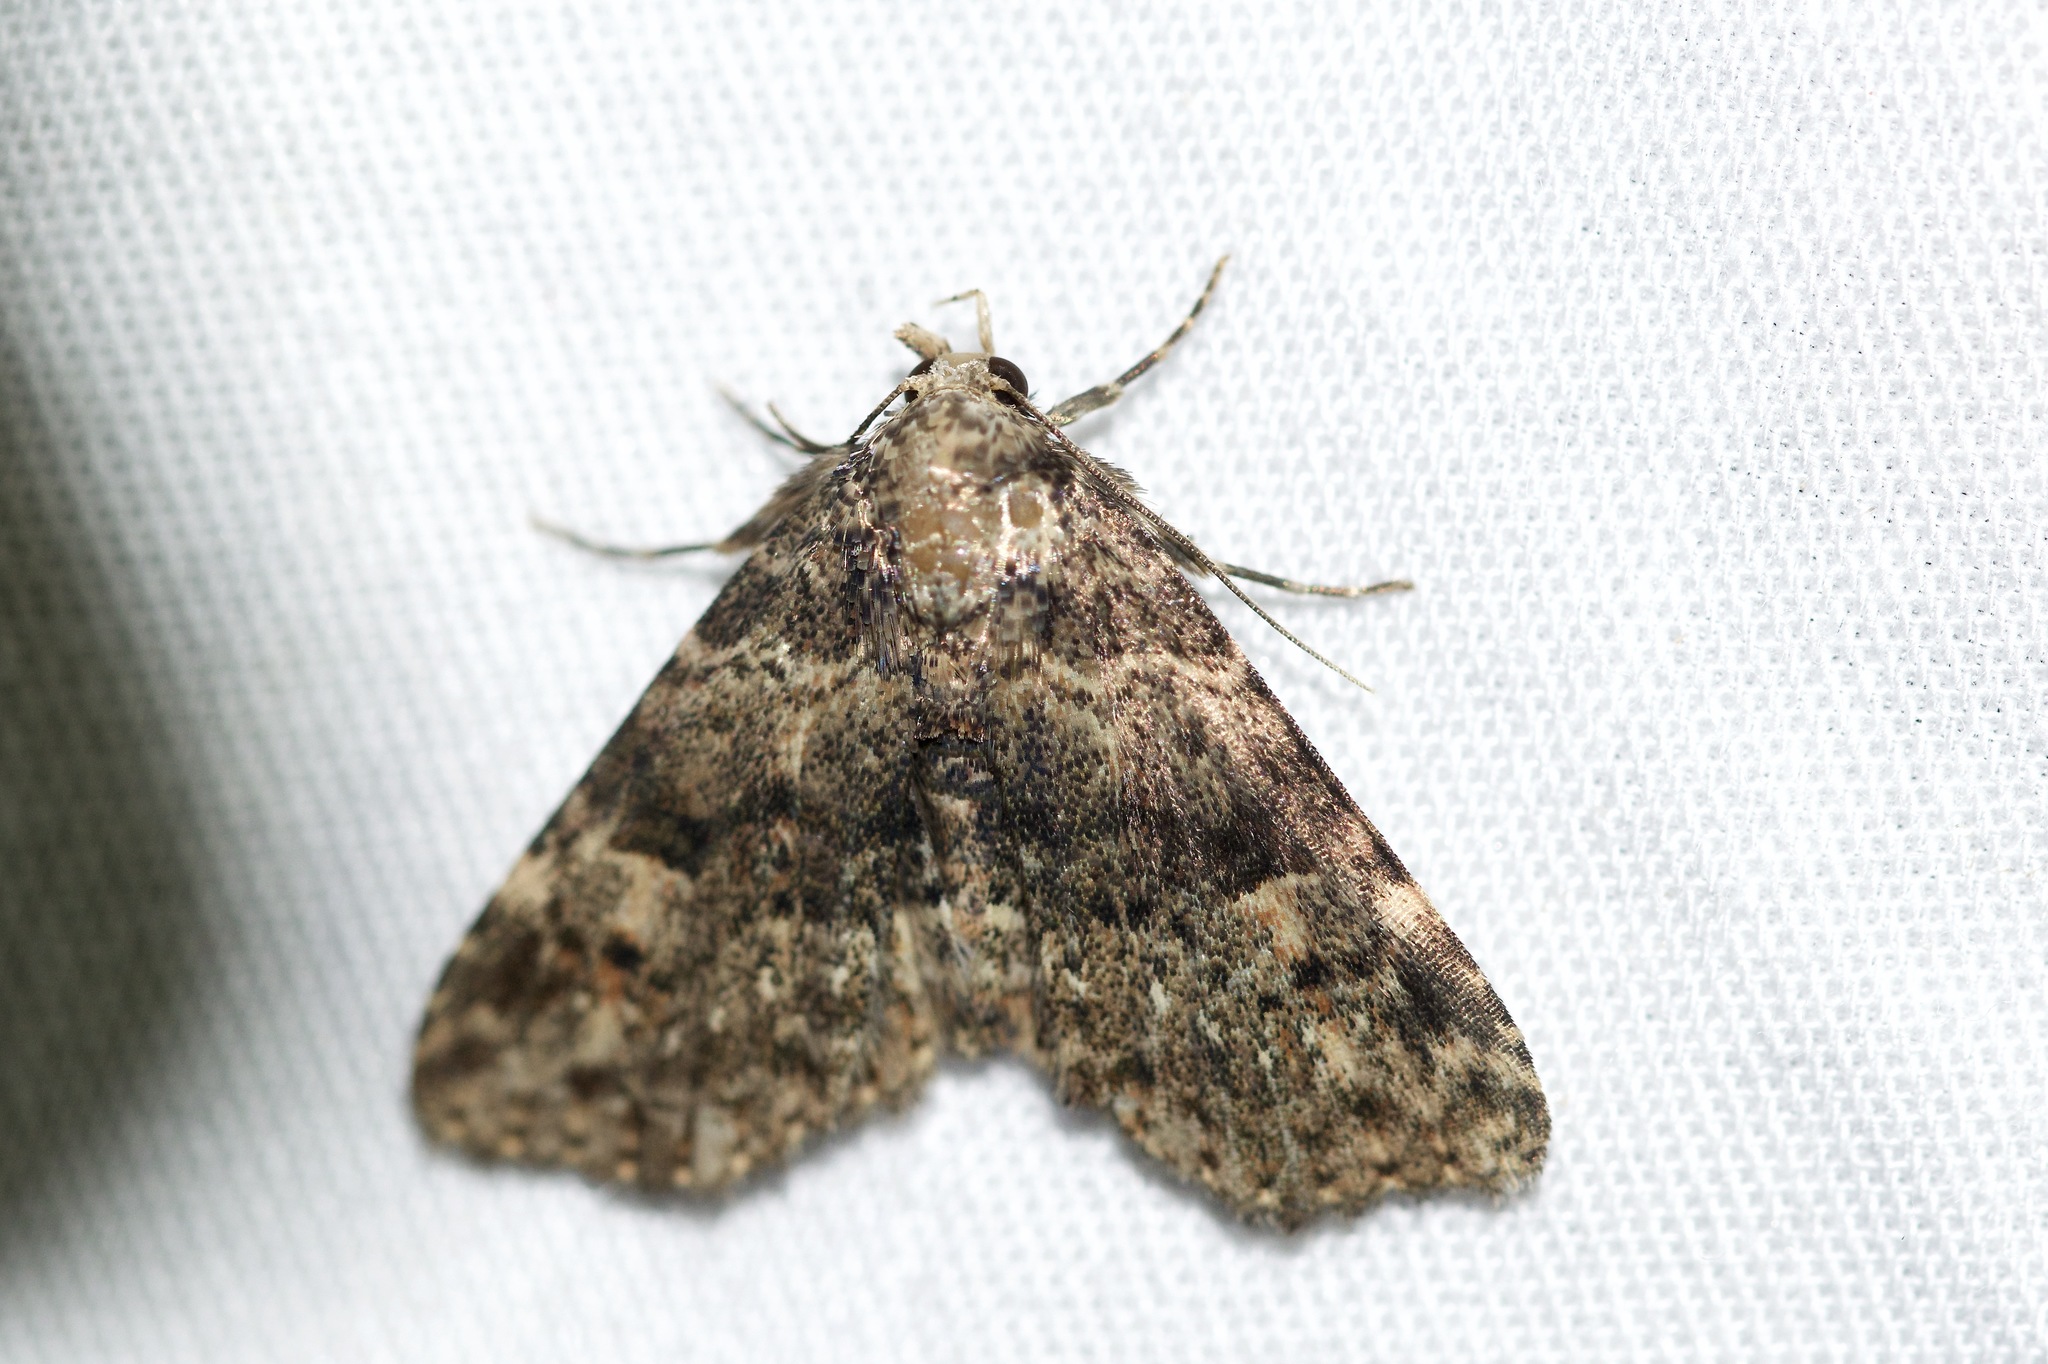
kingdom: Animalia
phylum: Arthropoda
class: Insecta
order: Lepidoptera
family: Erebidae
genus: Metalectra
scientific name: Metalectra discalis
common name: Common fungus moth
